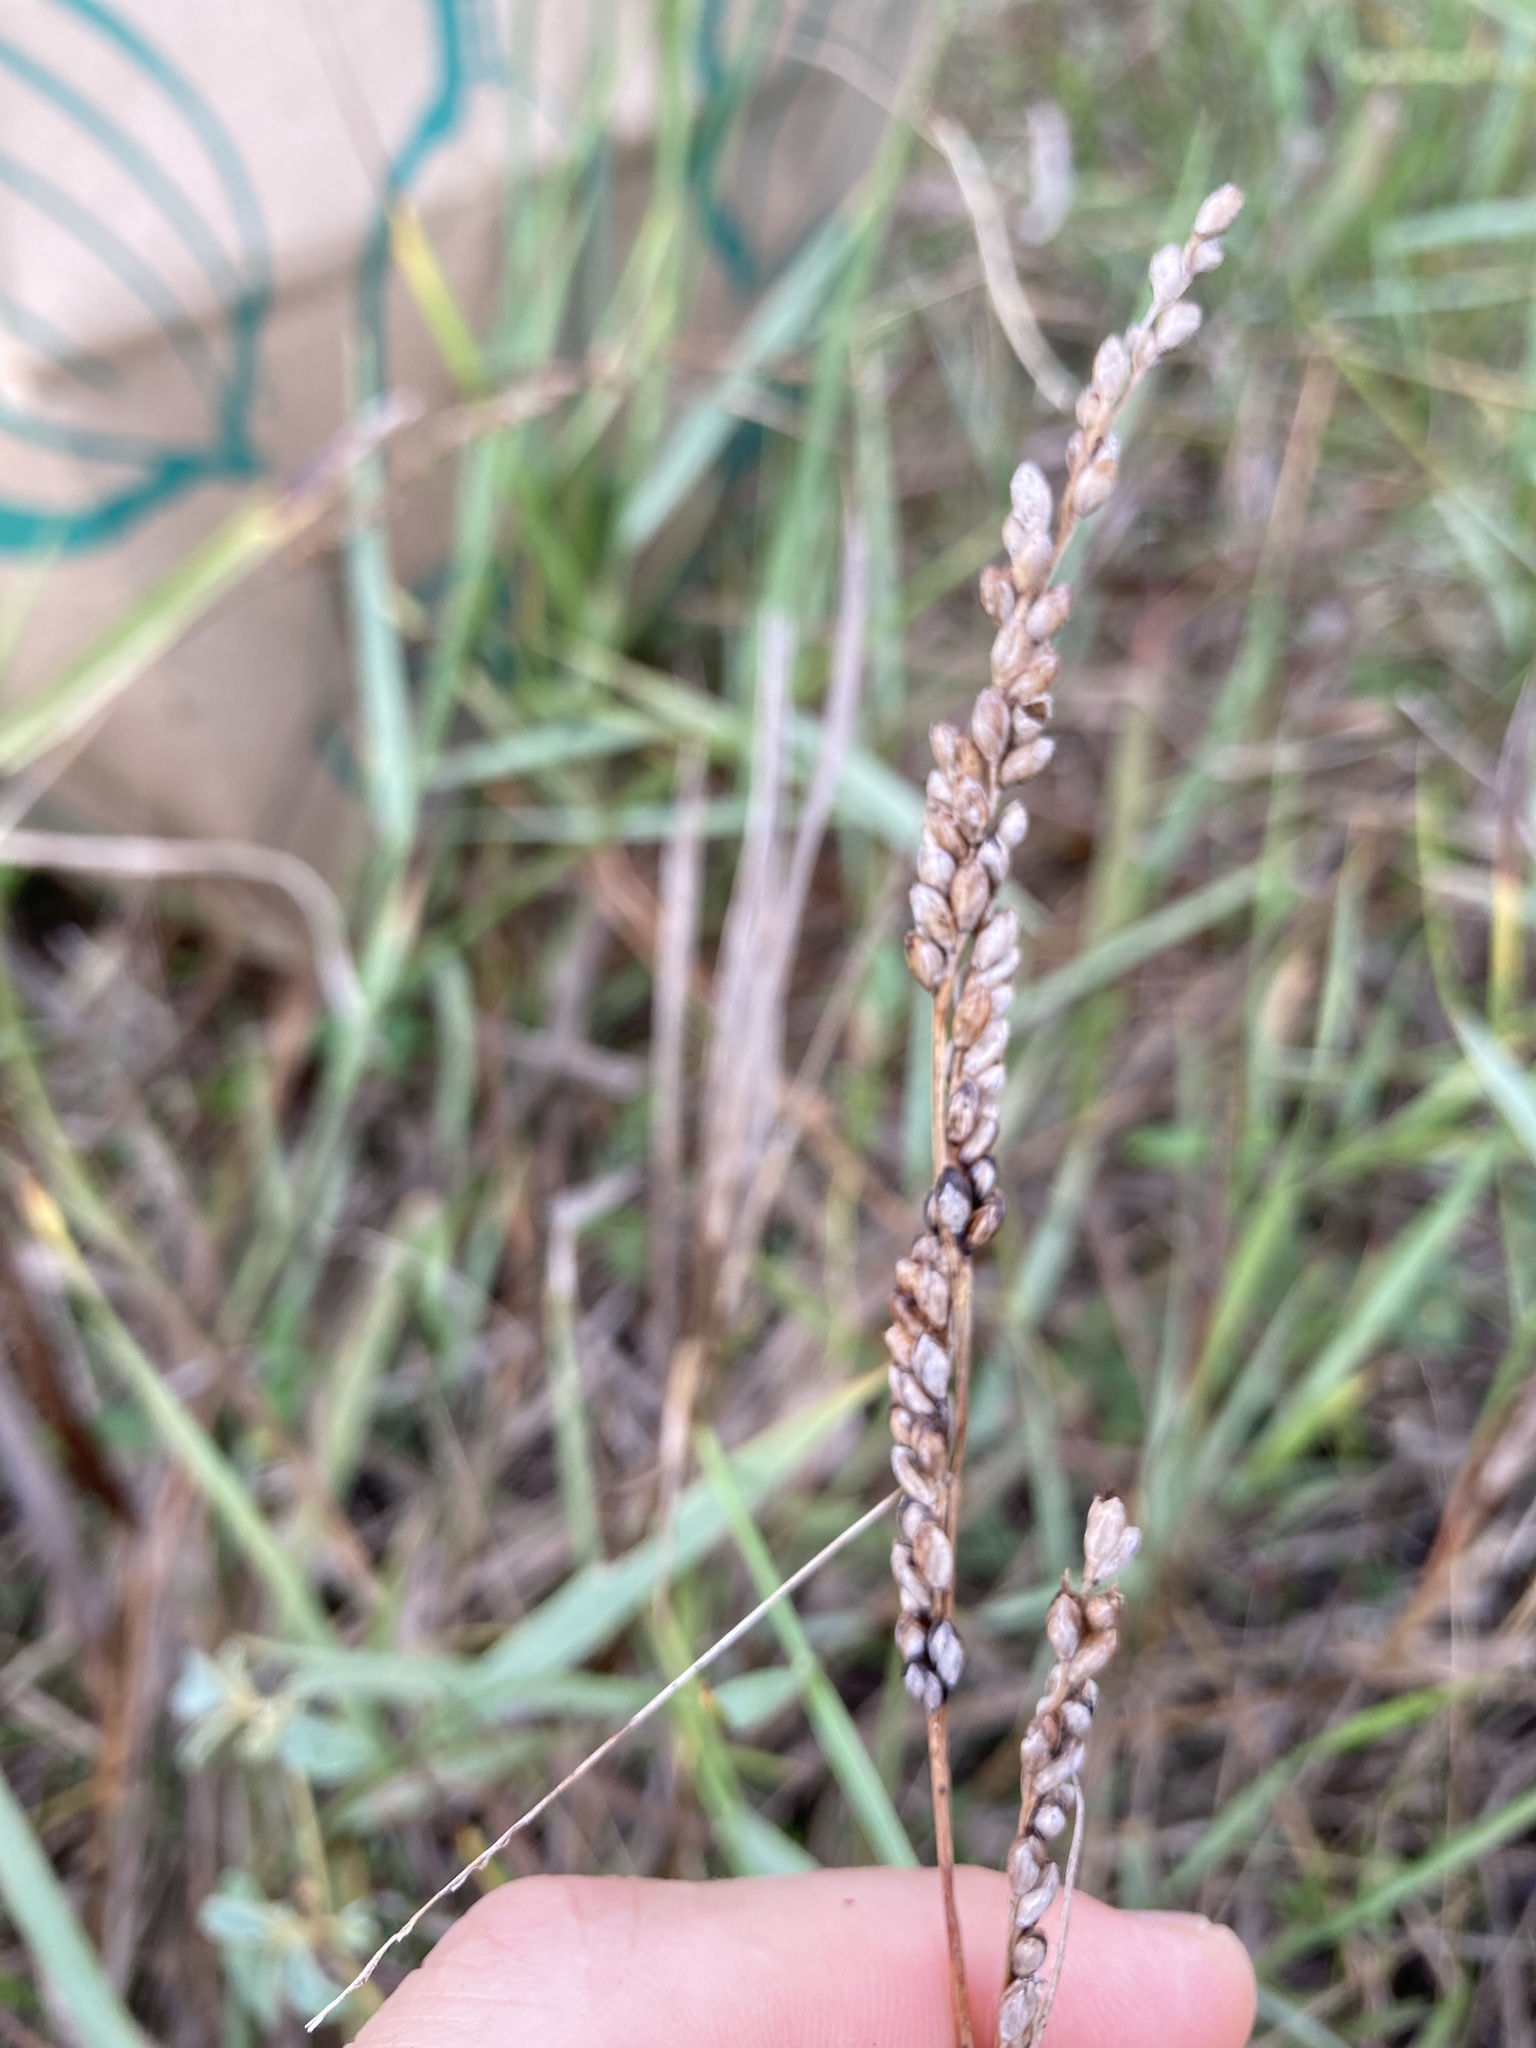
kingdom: Plantae
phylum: Tracheophyta
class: Liliopsida
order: Poales
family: Poaceae
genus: Hopia
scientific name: Hopia obtusa
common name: Vine-mesquite
